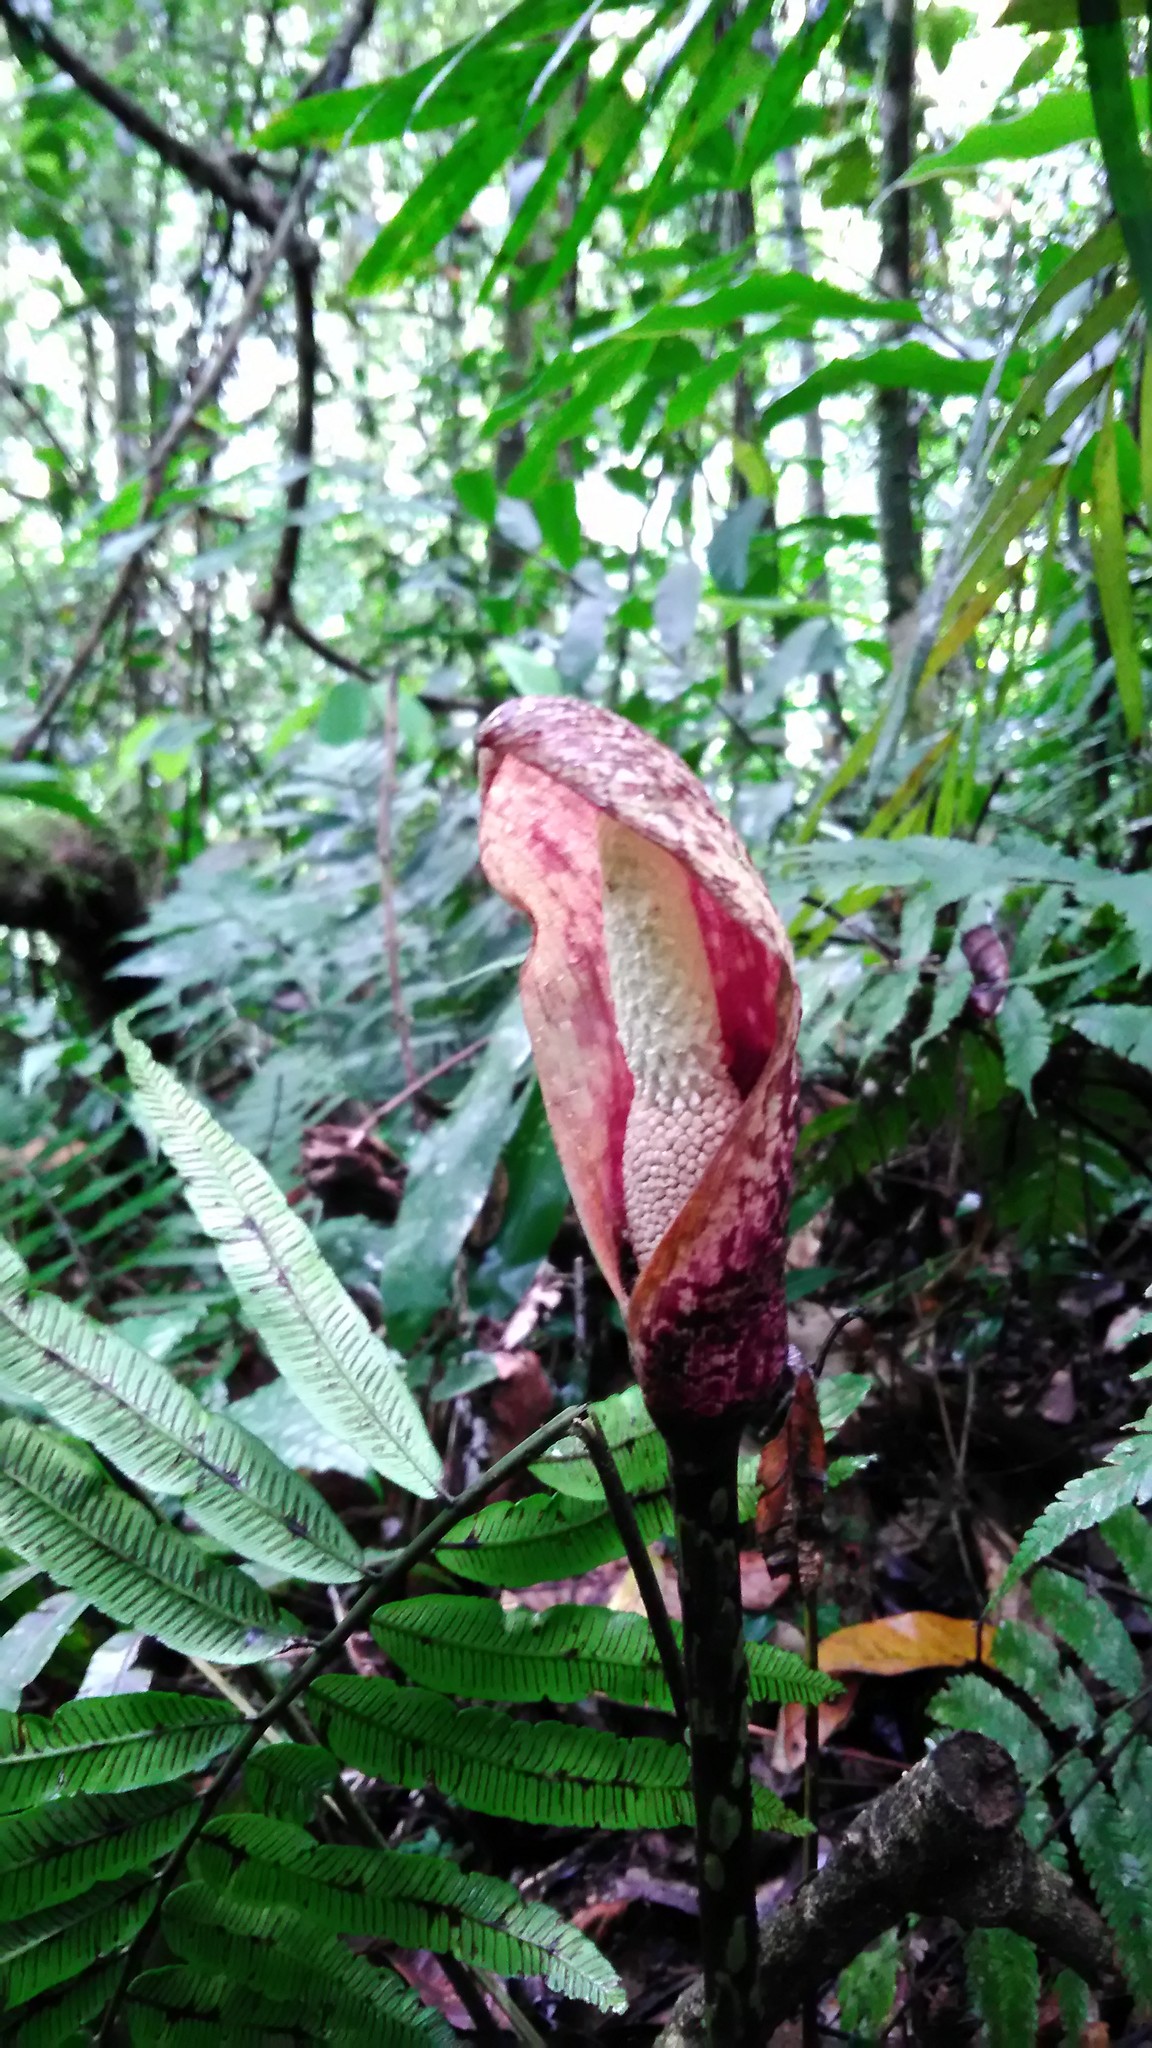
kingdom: Plantae
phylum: Tracheophyta
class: Liliopsida
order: Alismatales
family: Araceae
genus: Amorphophallus
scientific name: Amorphophallus beccarii
